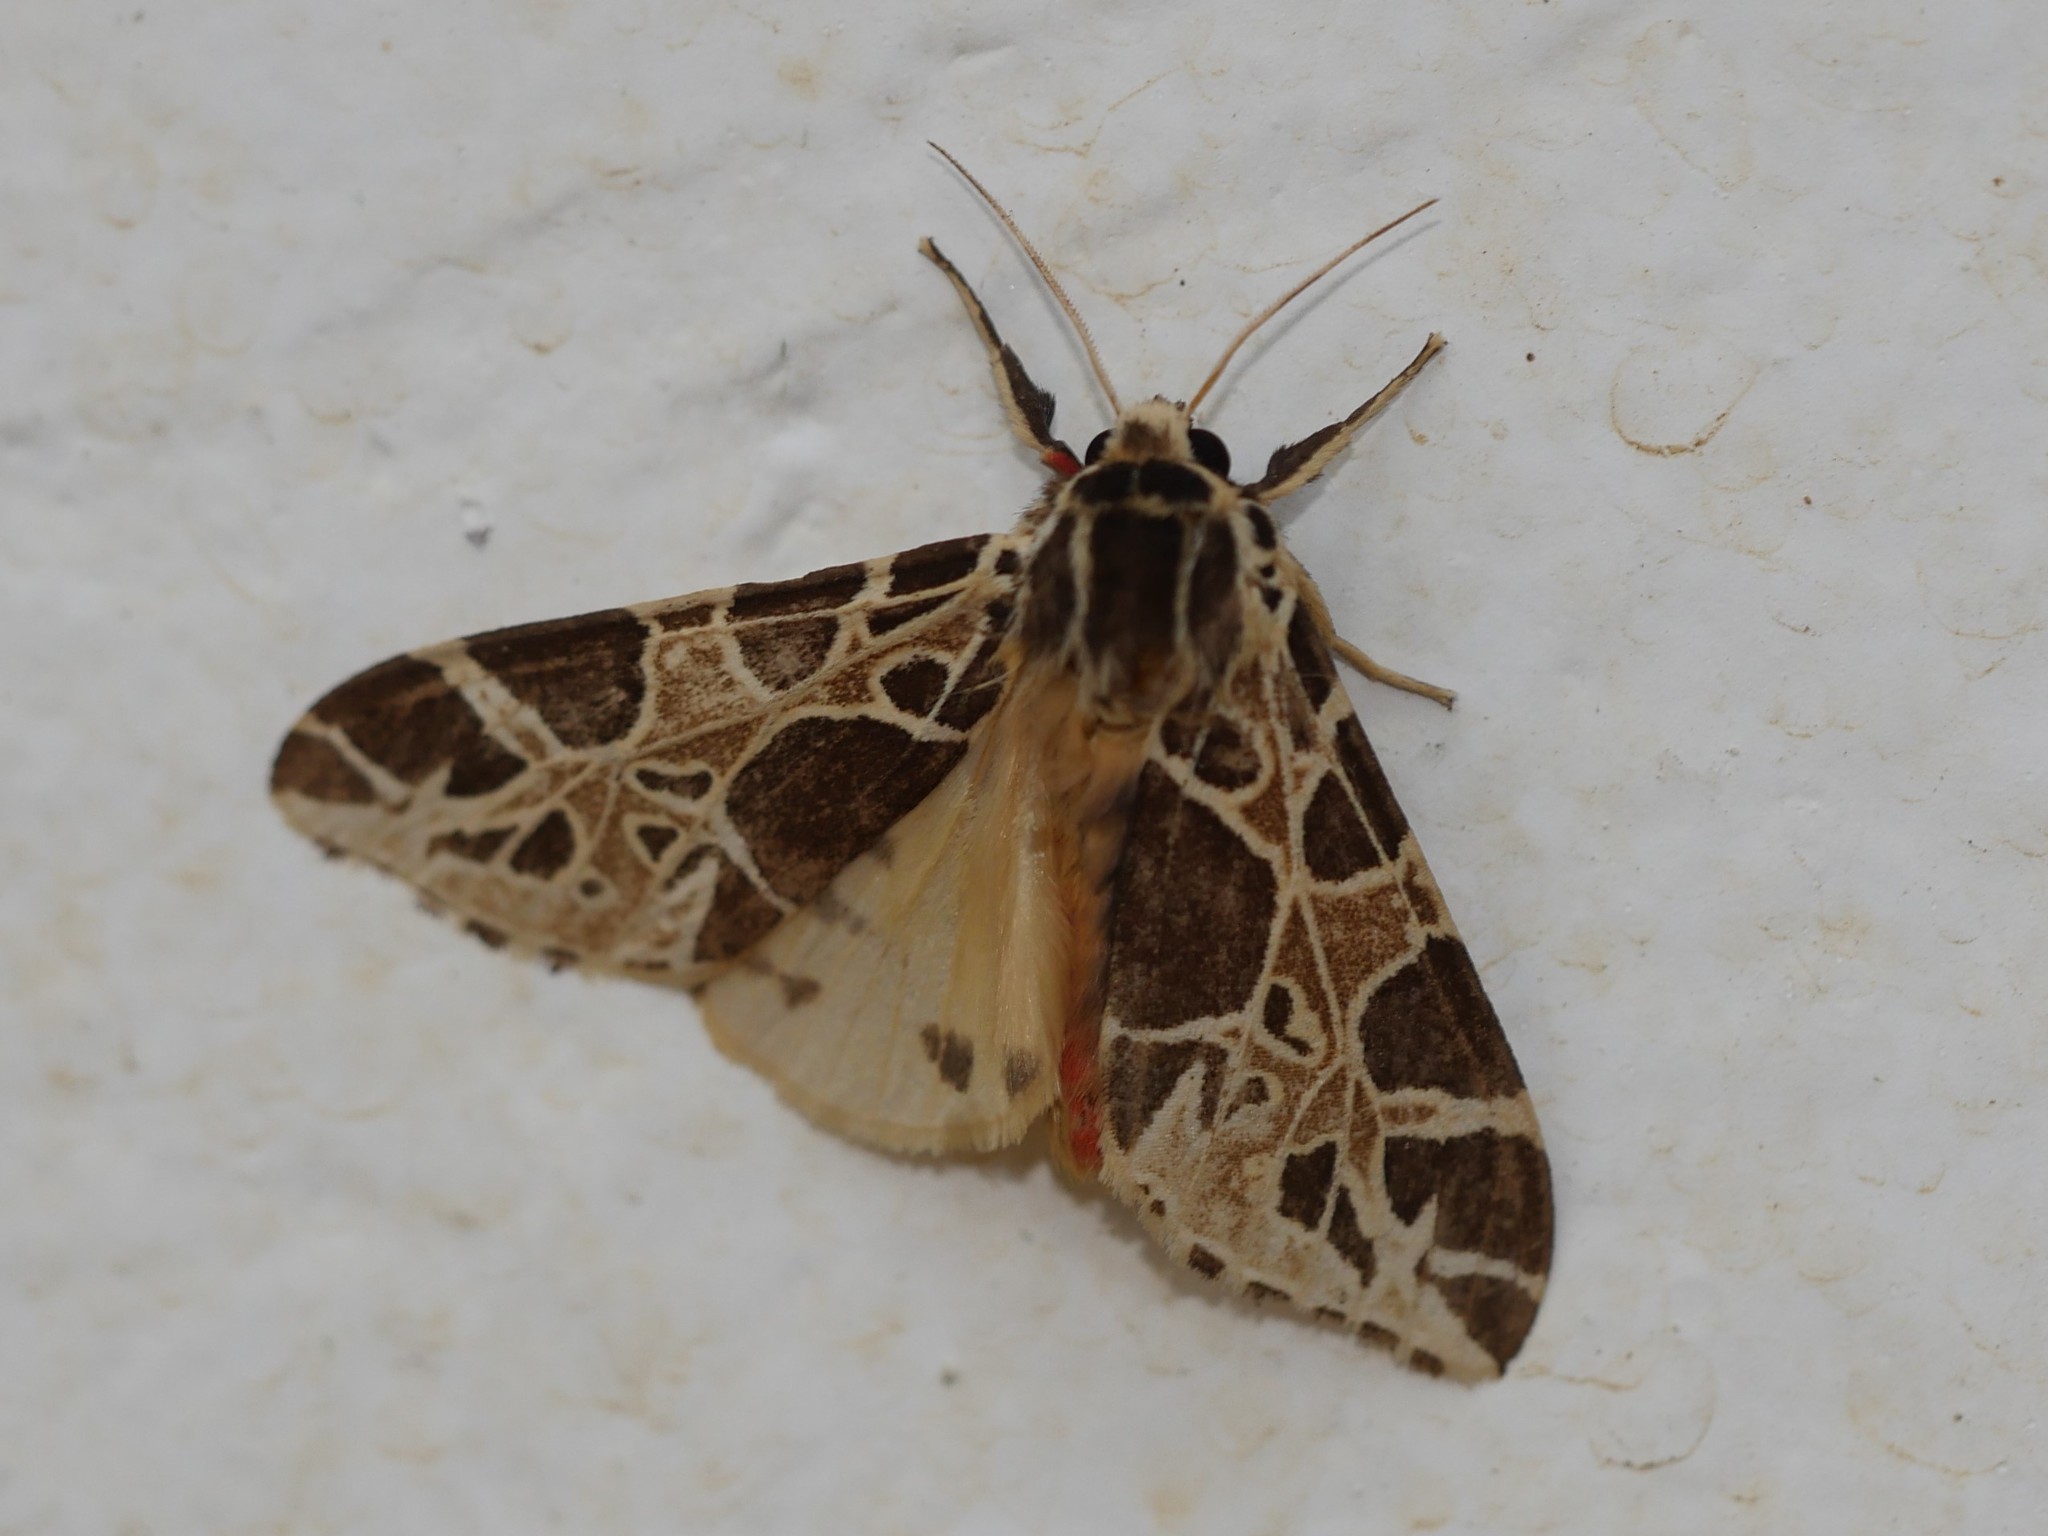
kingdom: Animalia
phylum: Arthropoda
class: Insecta
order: Lepidoptera
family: Erebidae
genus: Kiriakoffalia
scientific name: Kiriakoffalia costimacula
